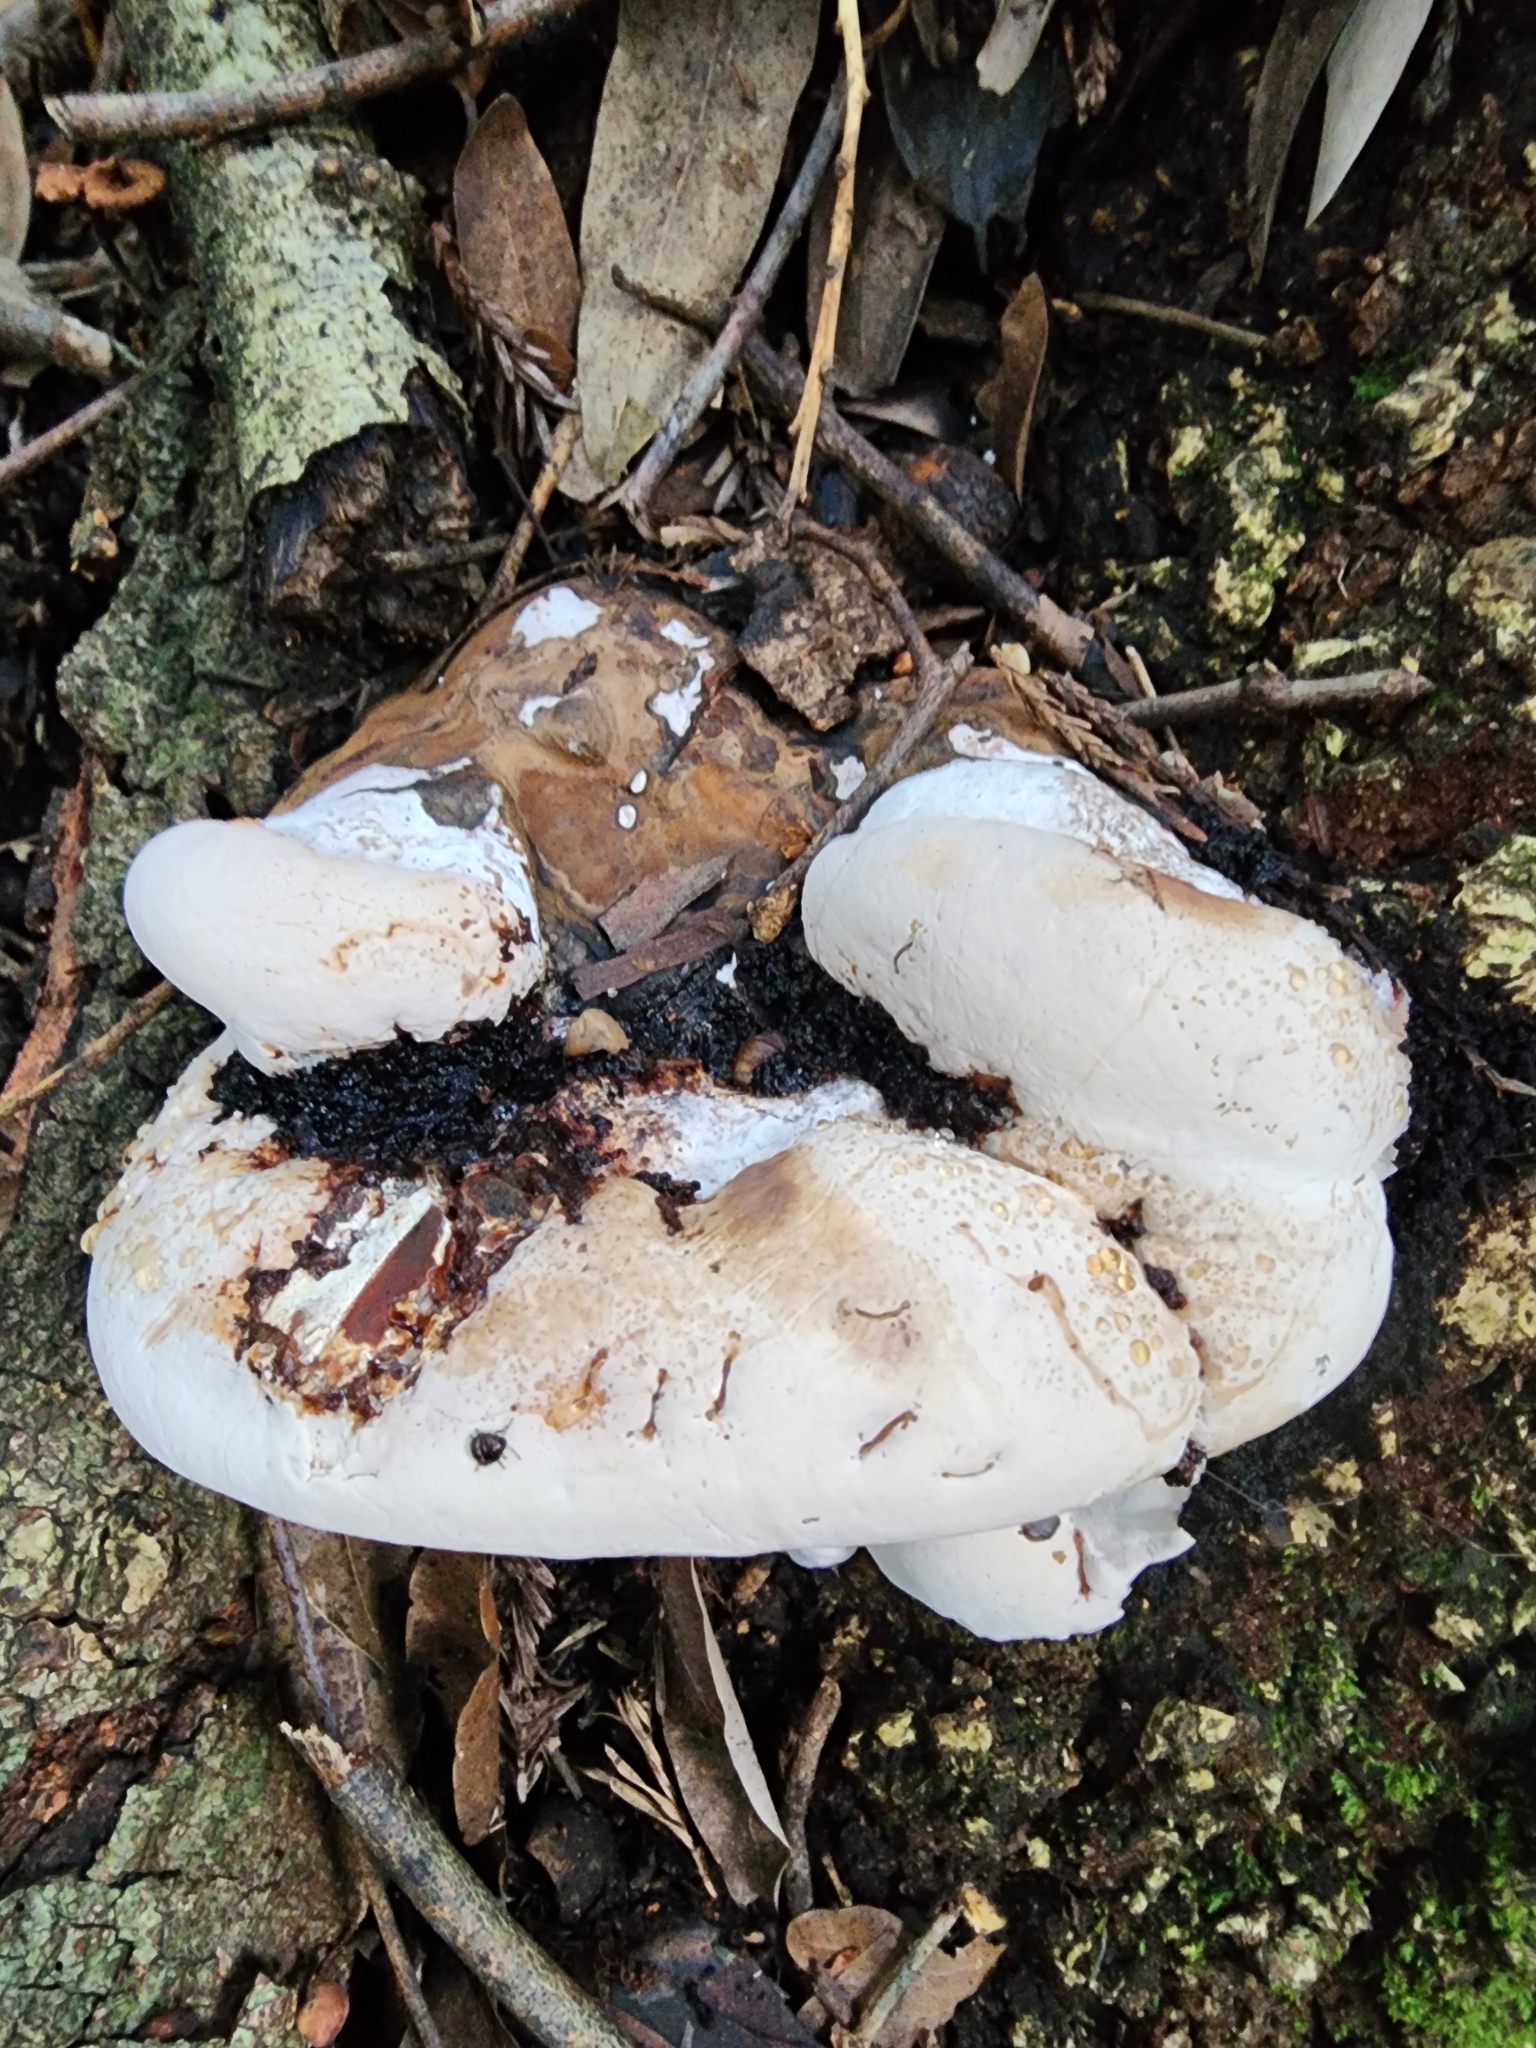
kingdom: Fungi
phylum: Basidiomycota
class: Agaricomycetes
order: Polyporales
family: Polyporaceae
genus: Ganoderma
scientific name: Ganoderma brownii
